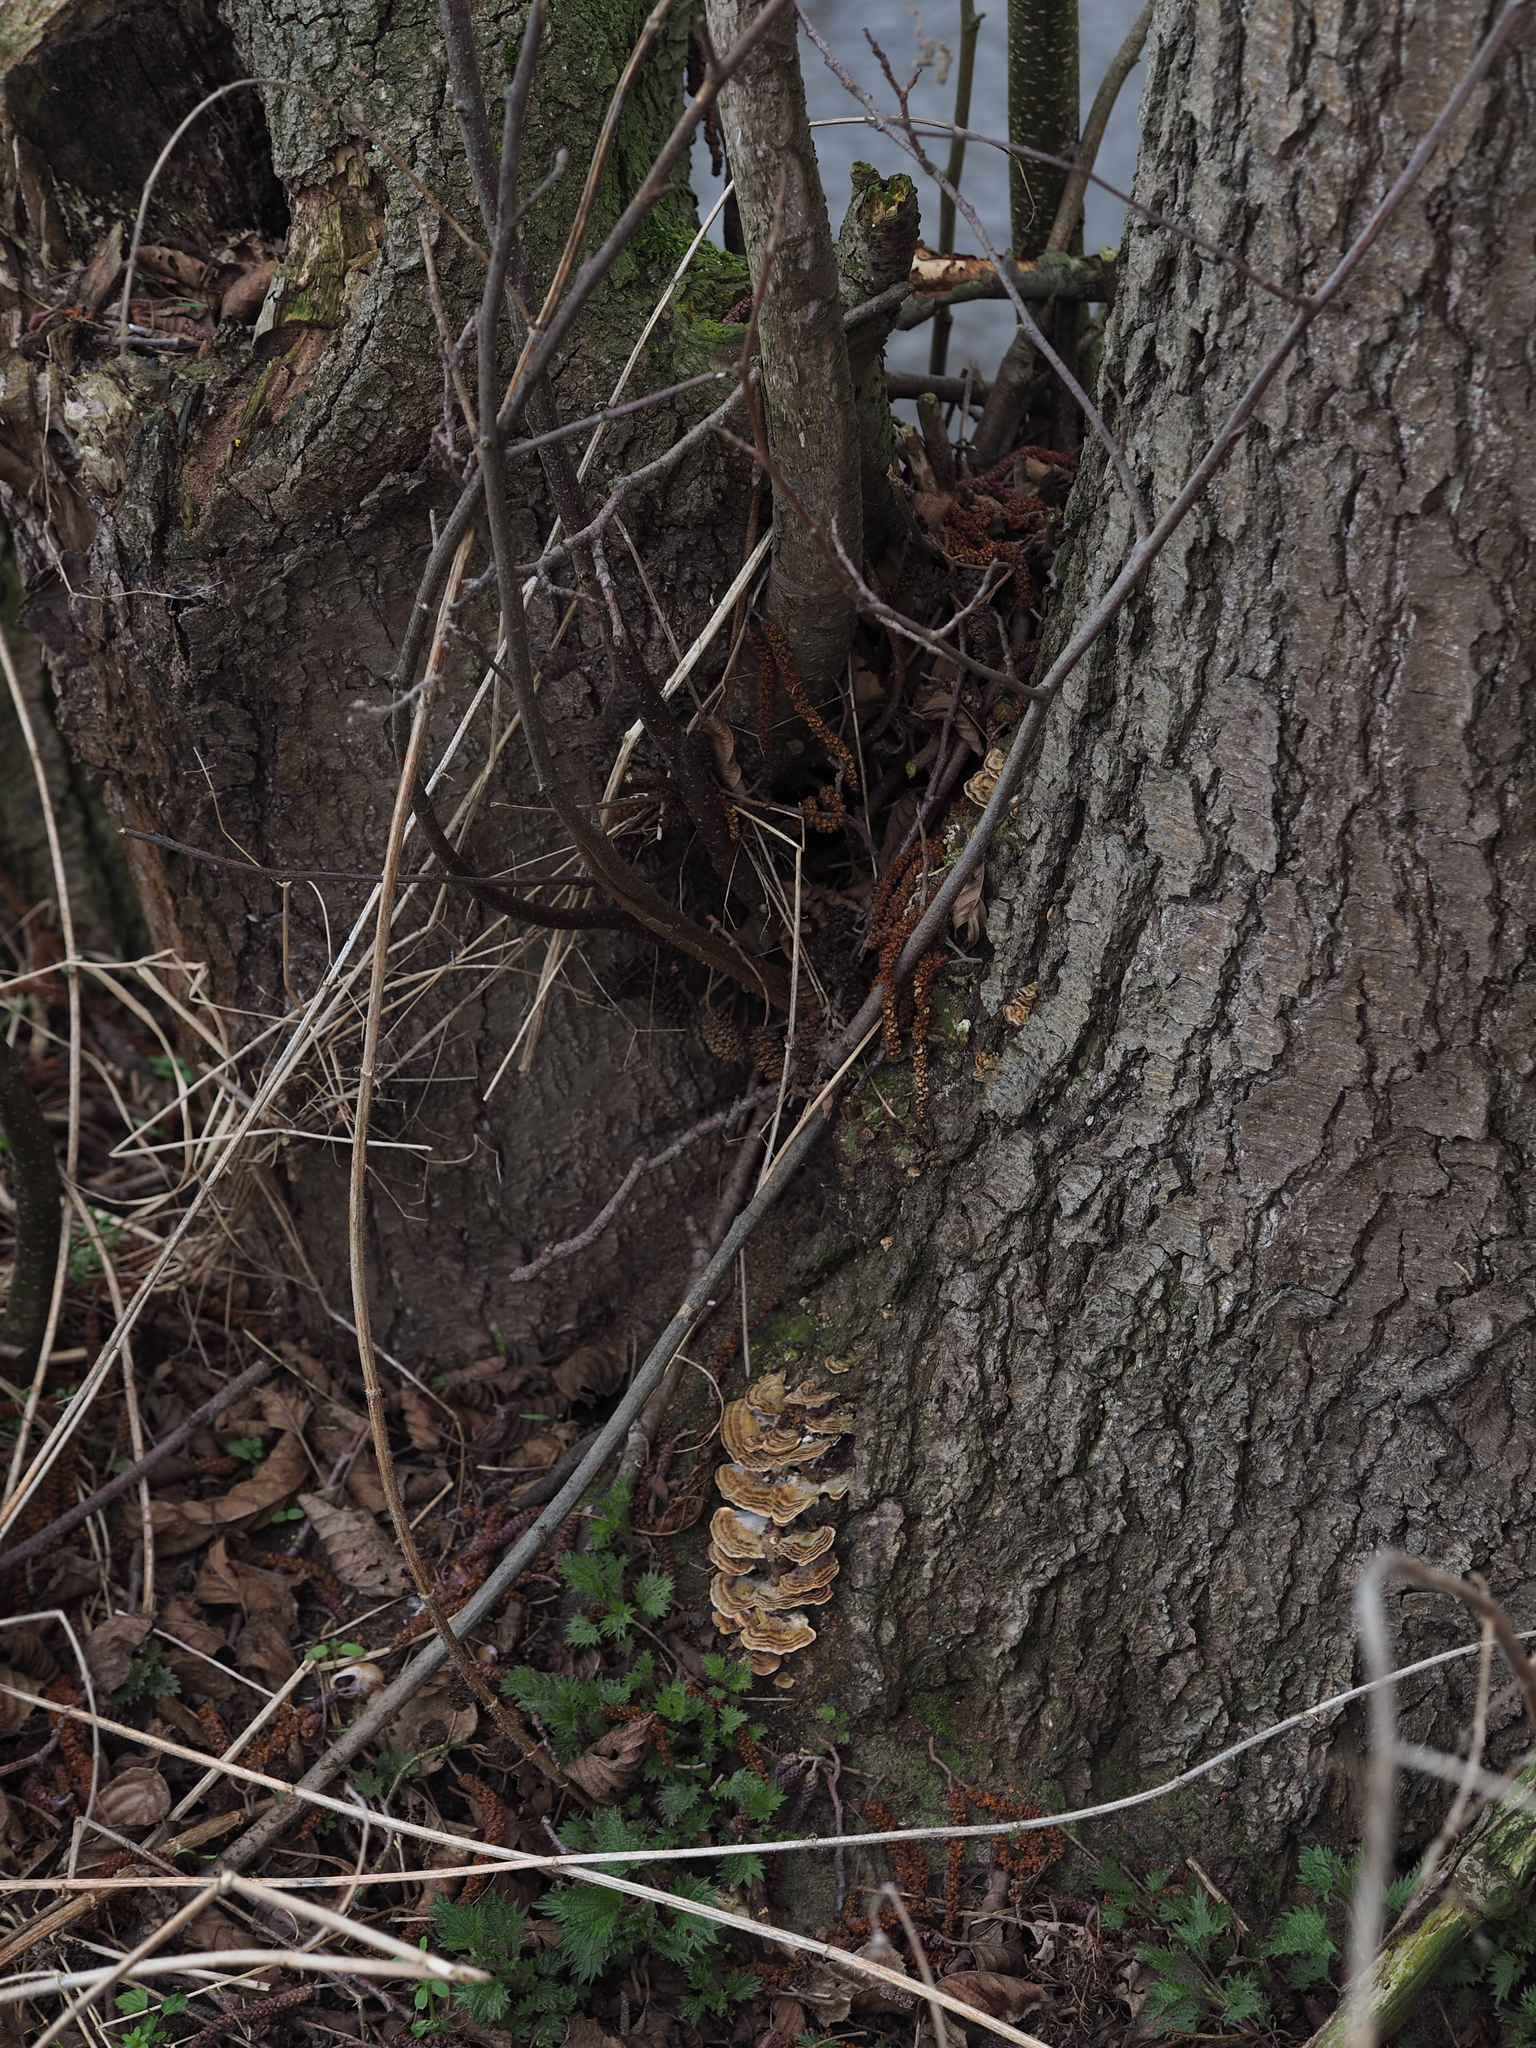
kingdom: Fungi
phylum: Basidiomycota
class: Agaricomycetes
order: Polyporales
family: Polyporaceae
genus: Trametes
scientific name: Trametes versicolor
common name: Turkeytail
